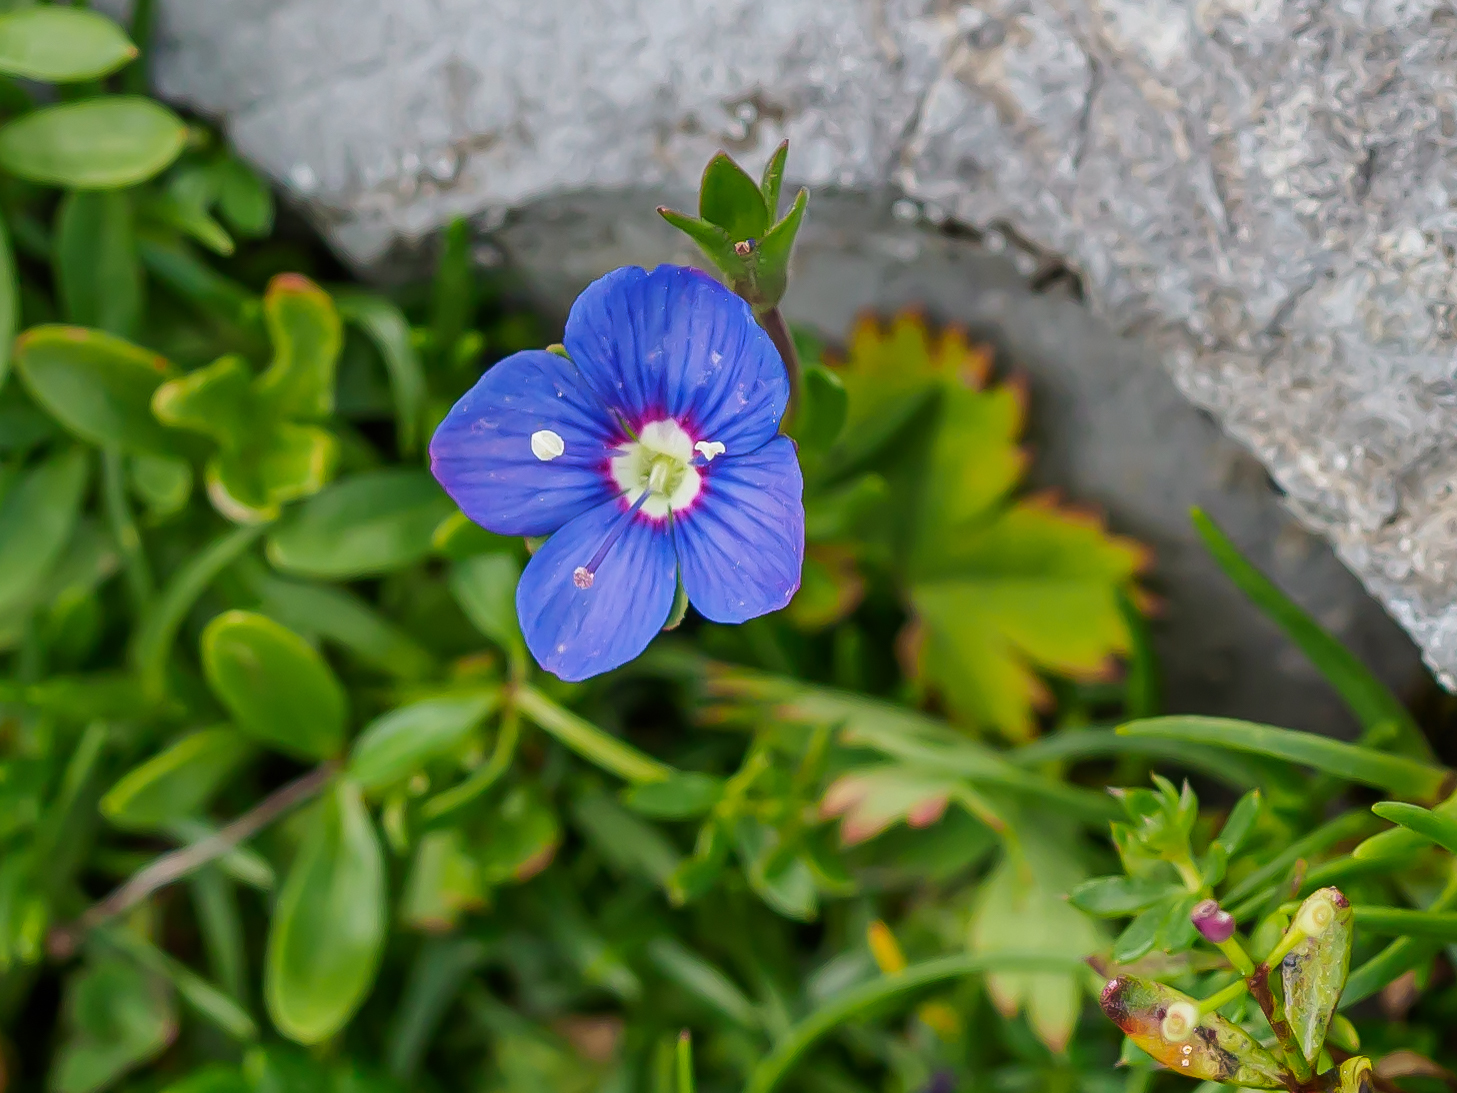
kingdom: Plantae
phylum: Tracheophyta
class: Magnoliopsida
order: Lamiales
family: Plantaginaceae
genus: Veronica
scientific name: Veronica fruticans
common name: Rock speedwell
